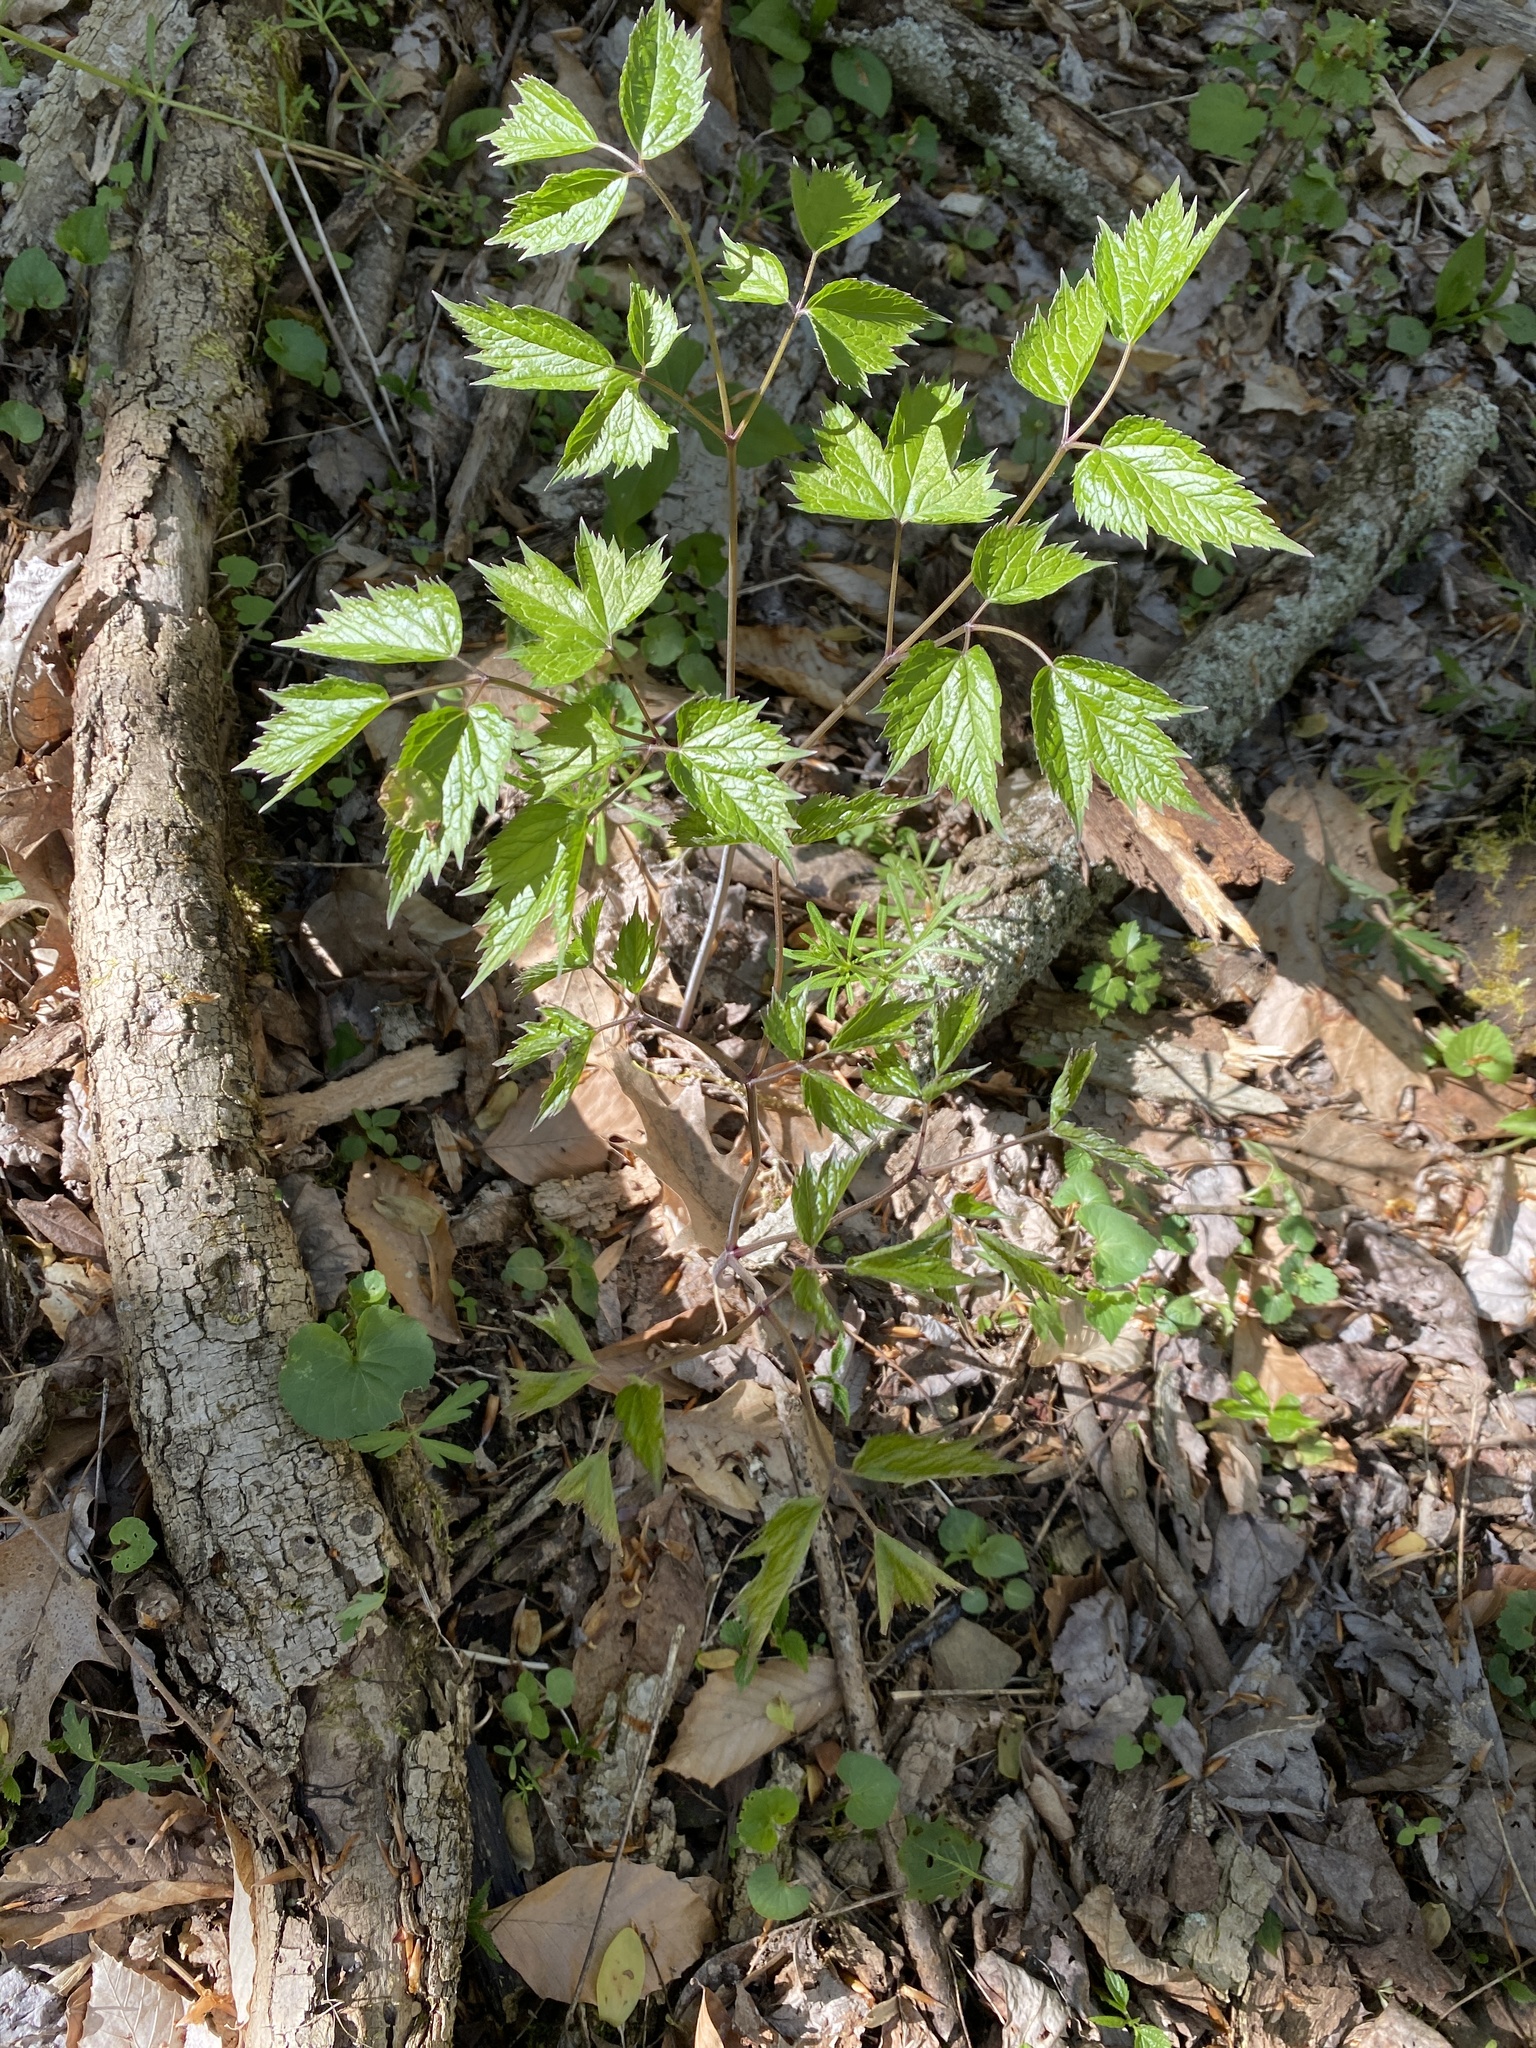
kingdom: Plantae
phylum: Tracheophyta
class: Magnoliopsida
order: Ranunculales
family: Ranunculaceae
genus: Actaea
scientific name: Actaea racemosa
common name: Black cohosh
